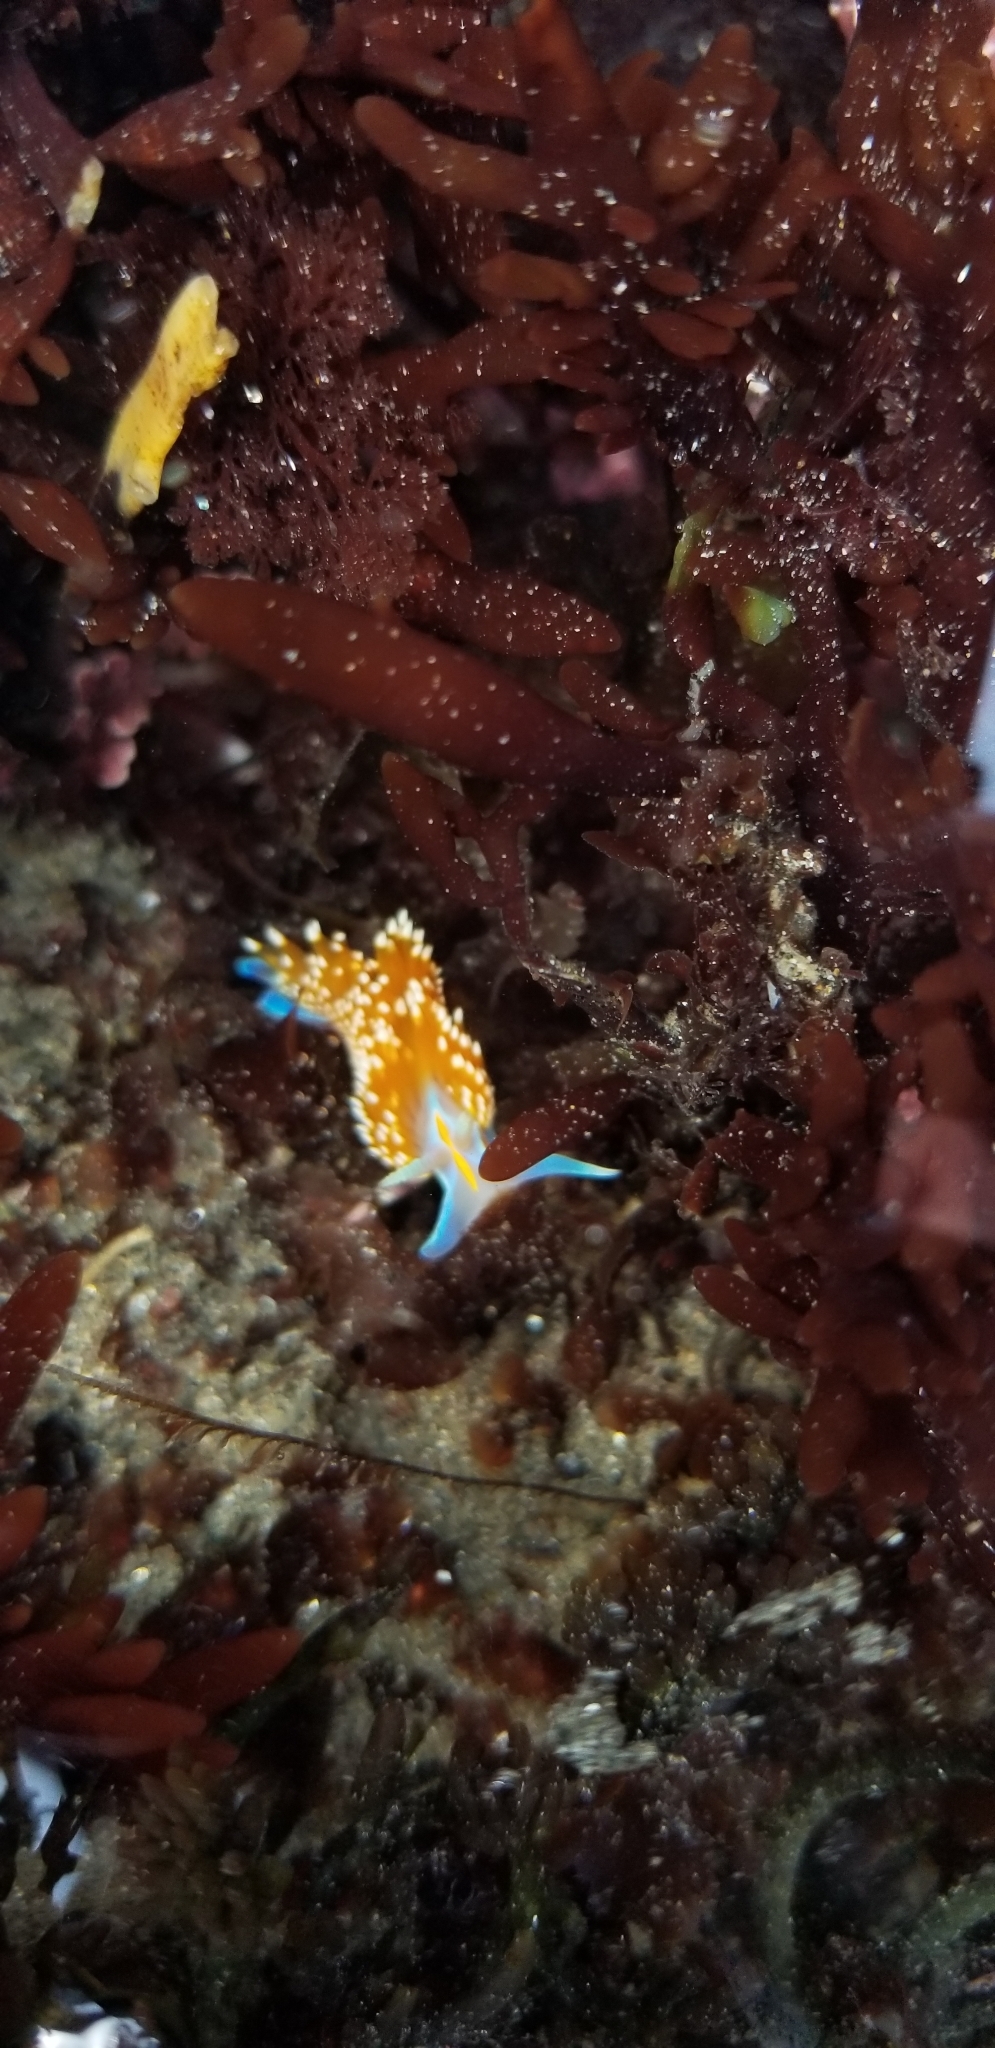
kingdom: Animalia
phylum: Mollusca
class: Gastropoda
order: Nudibranchia
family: Myrrhinidae
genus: Hermissenda
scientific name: Hermissenda opalescens
